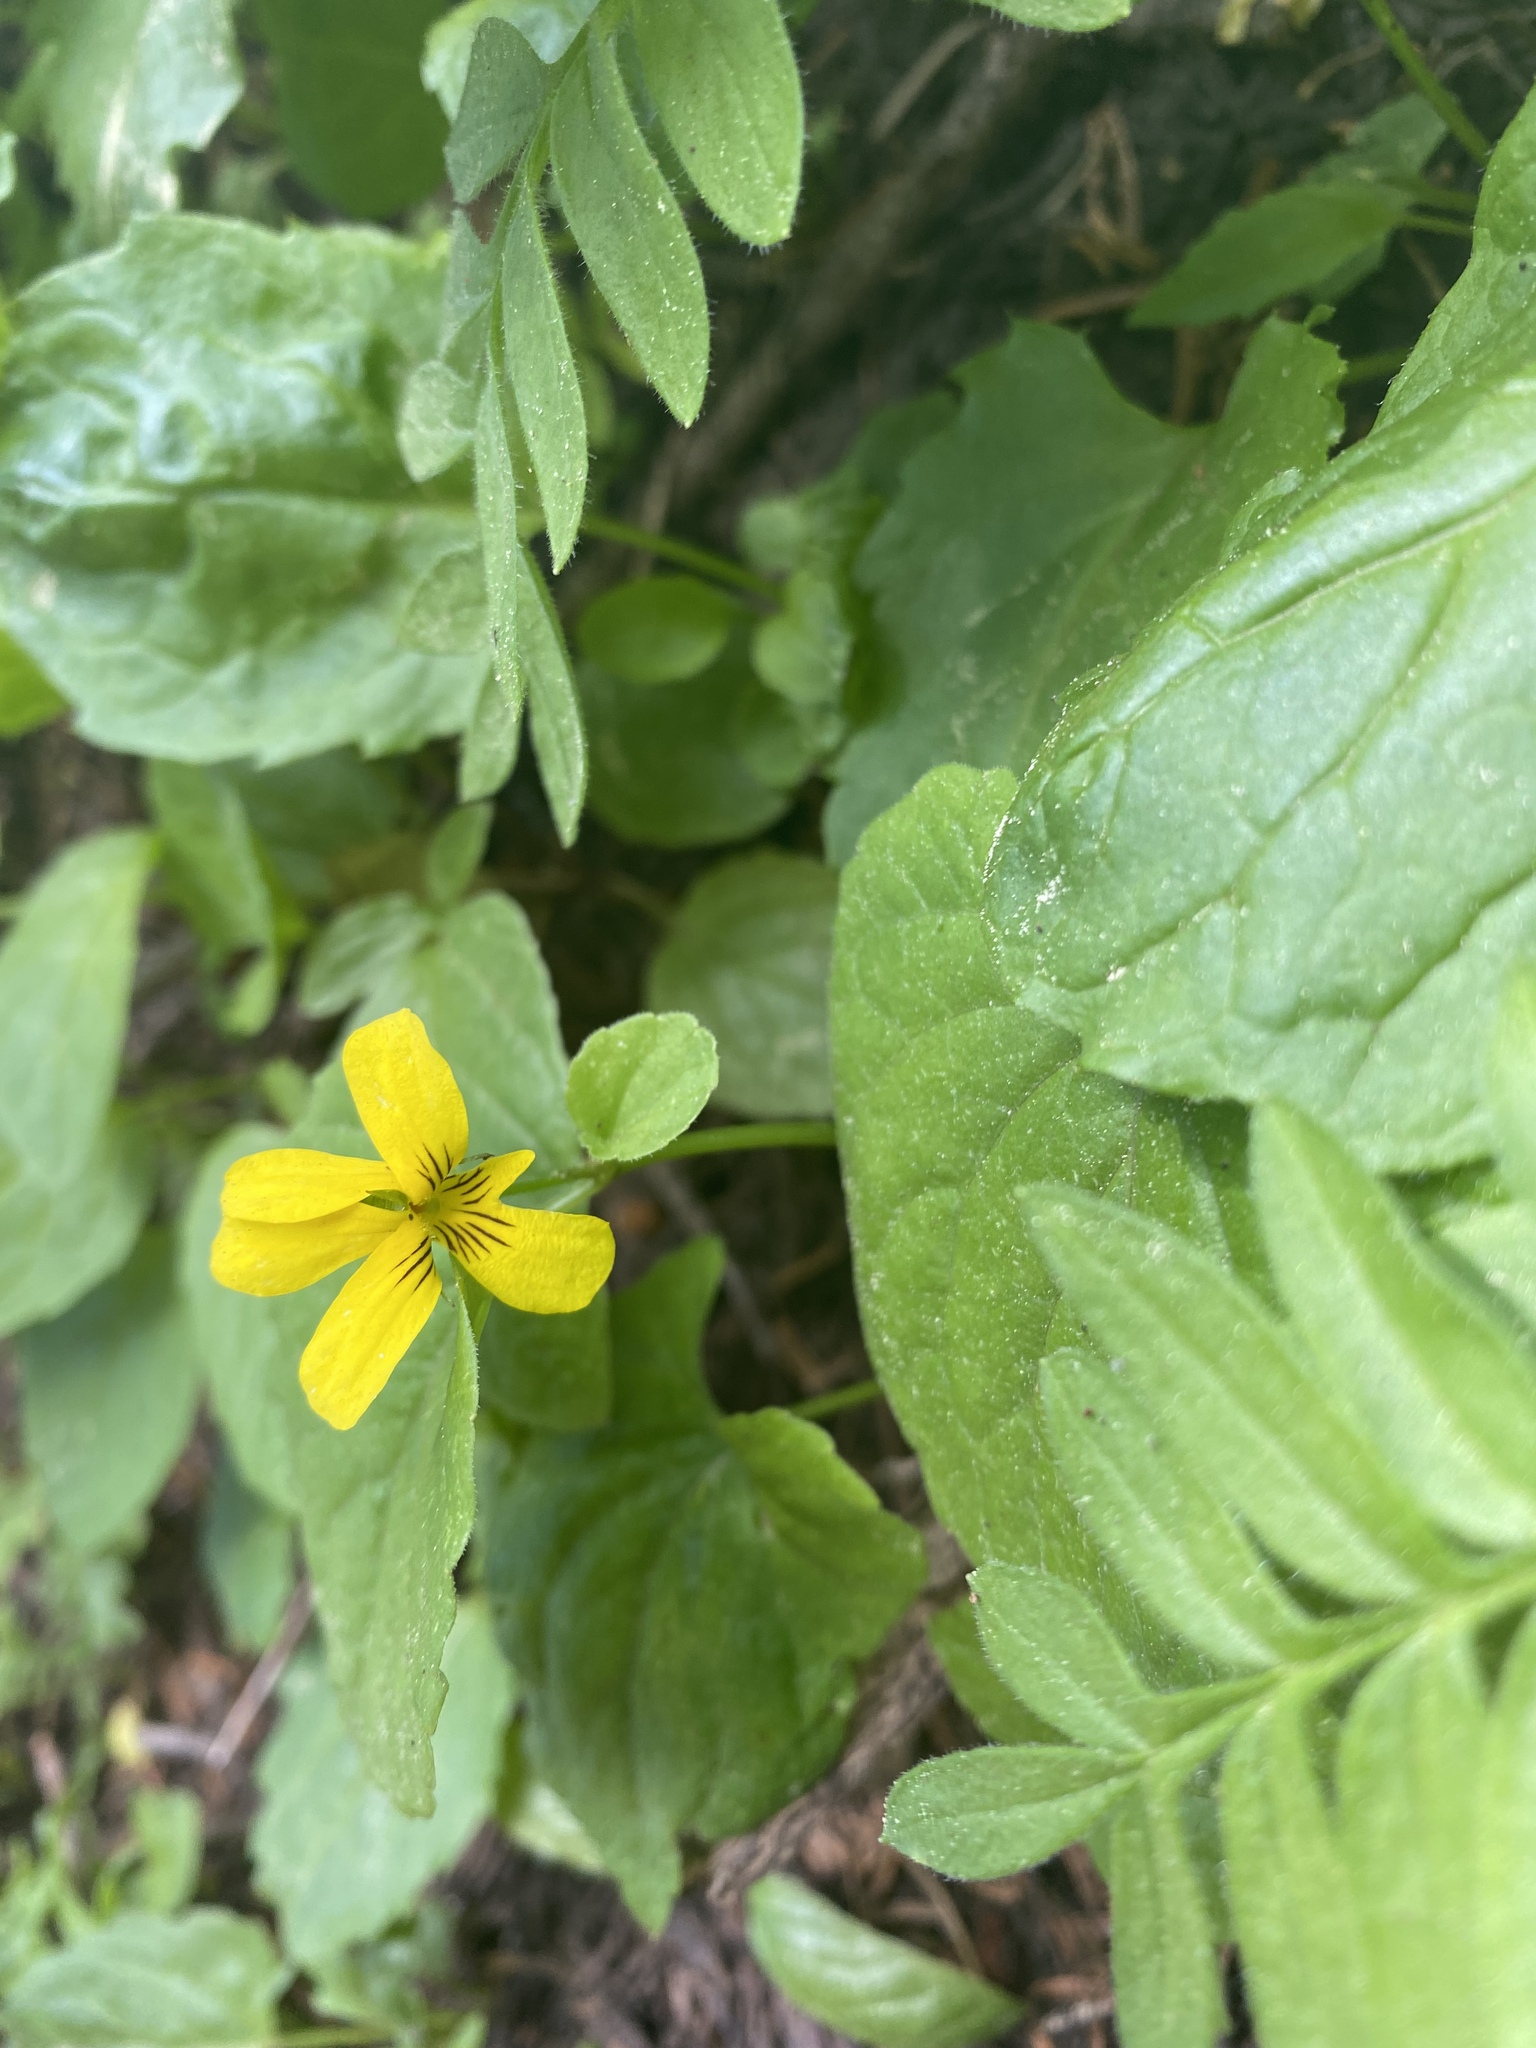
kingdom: Plantae
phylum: Tracheophyta
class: Magnoliopsida
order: Malpighiales
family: Violaceae
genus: Viola
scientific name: Viola glabella
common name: Stream violet
